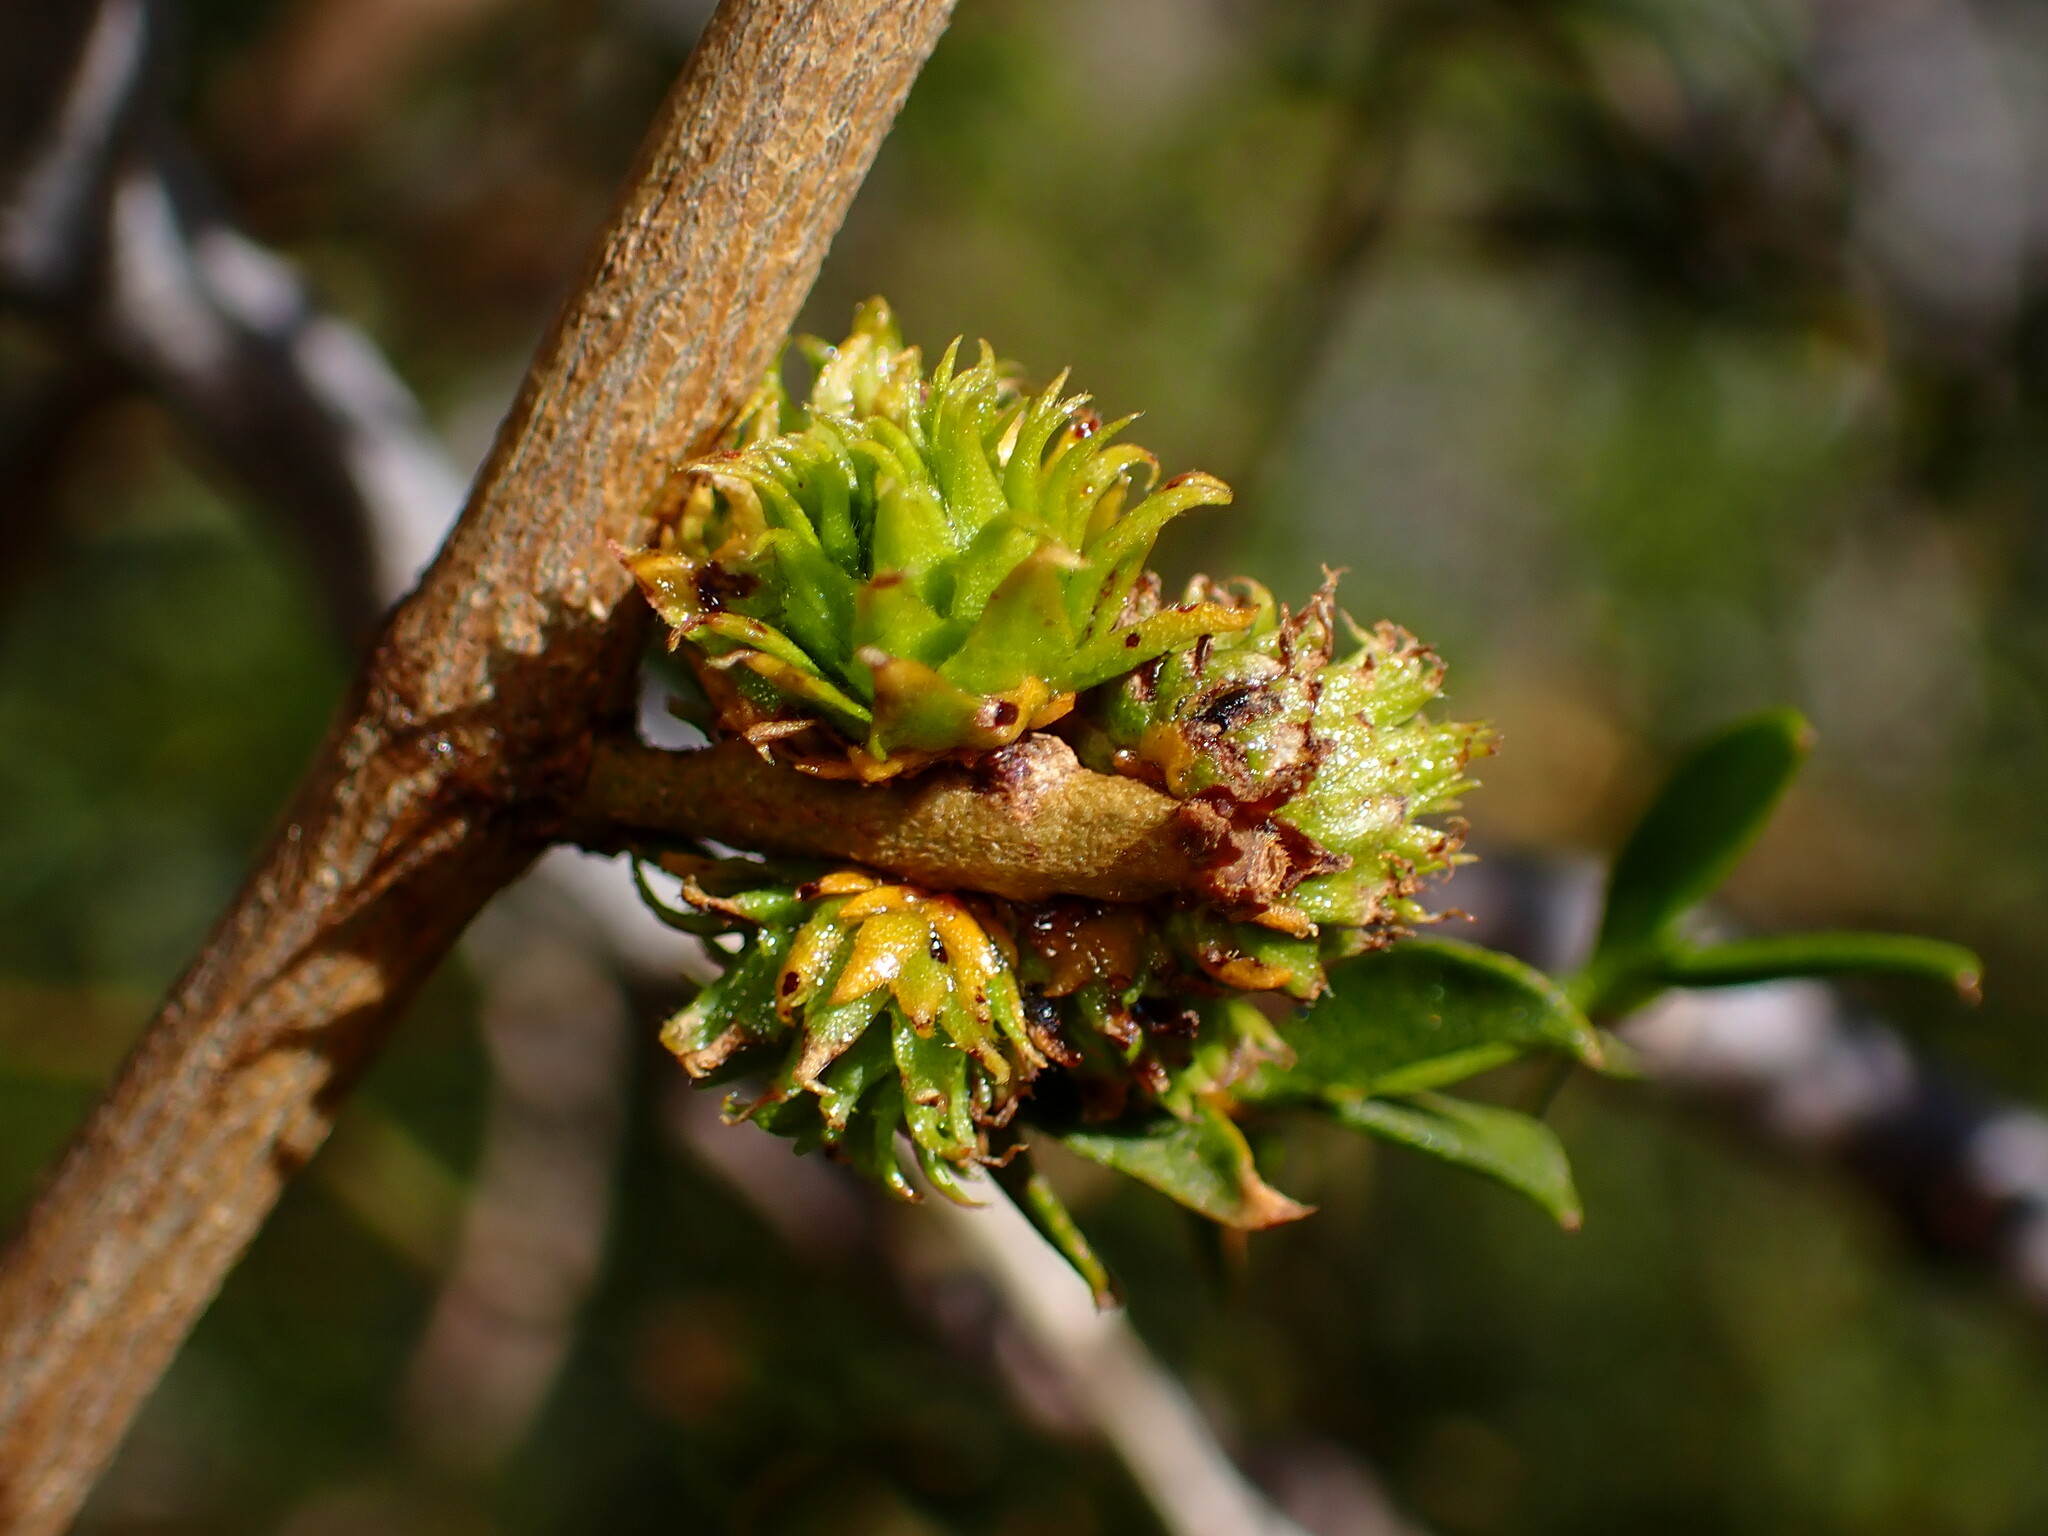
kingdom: Animalia
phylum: Arthropoda
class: Insecta
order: Diptera
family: Cecidomyiidae
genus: Asphondylia
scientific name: Asphondylia foliosa
